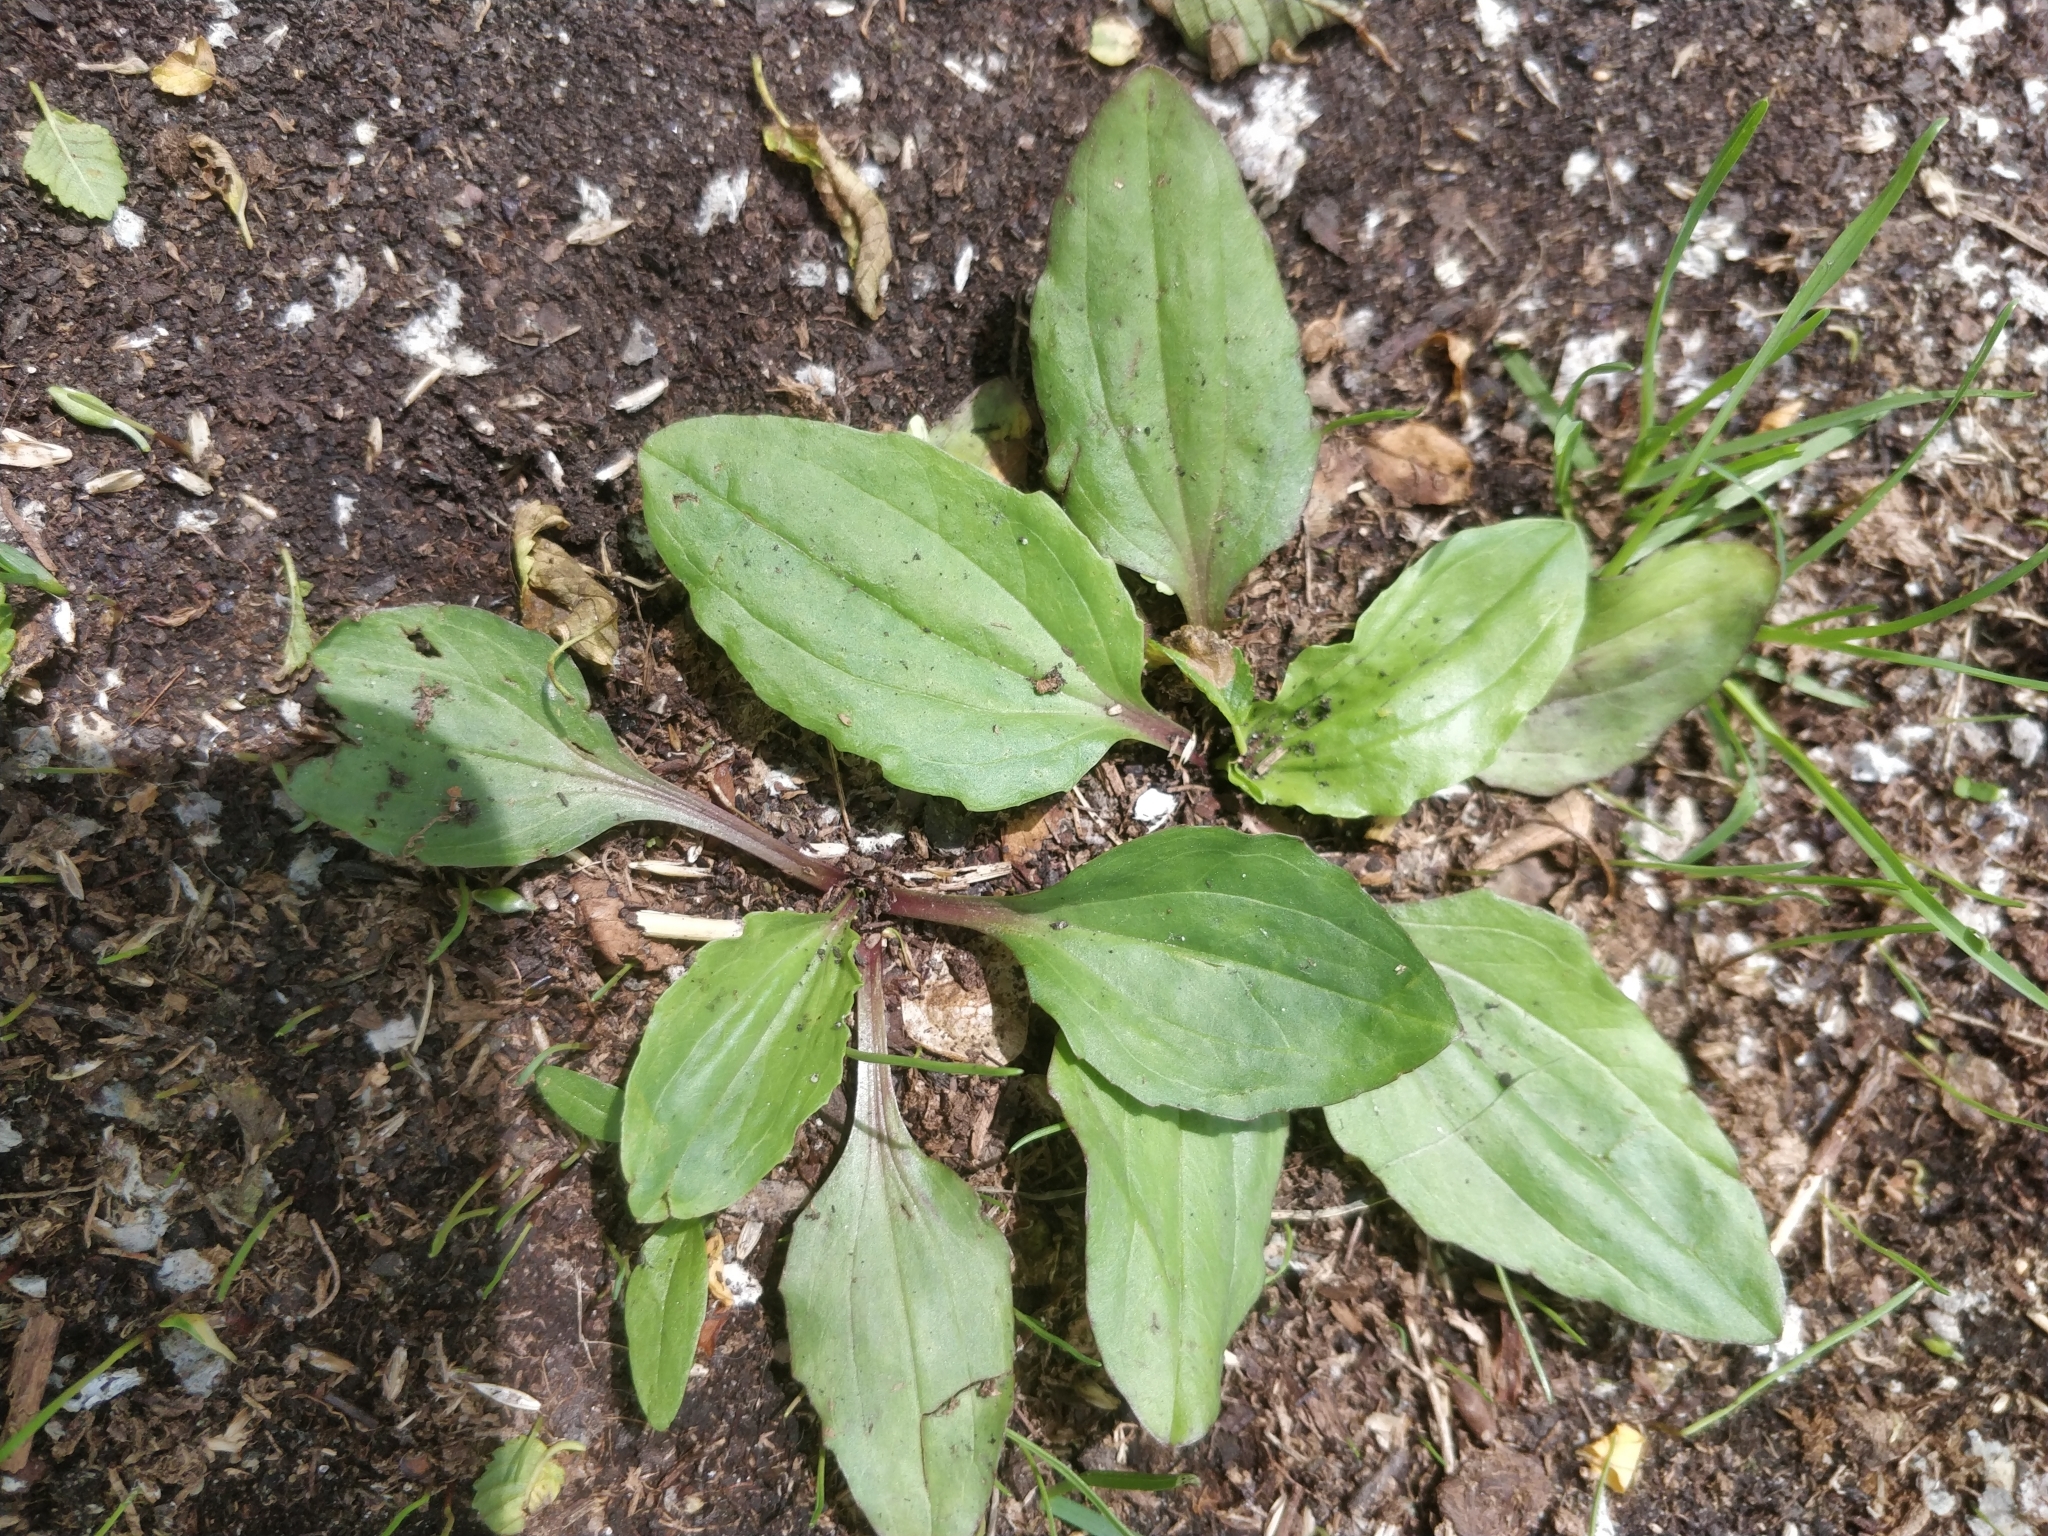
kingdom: Plantae
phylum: Tracheophyta
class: Magnoliopsida
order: Lamiales
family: Plantaginaceae
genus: Plantago
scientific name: Plantago rugelii
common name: American plantain
